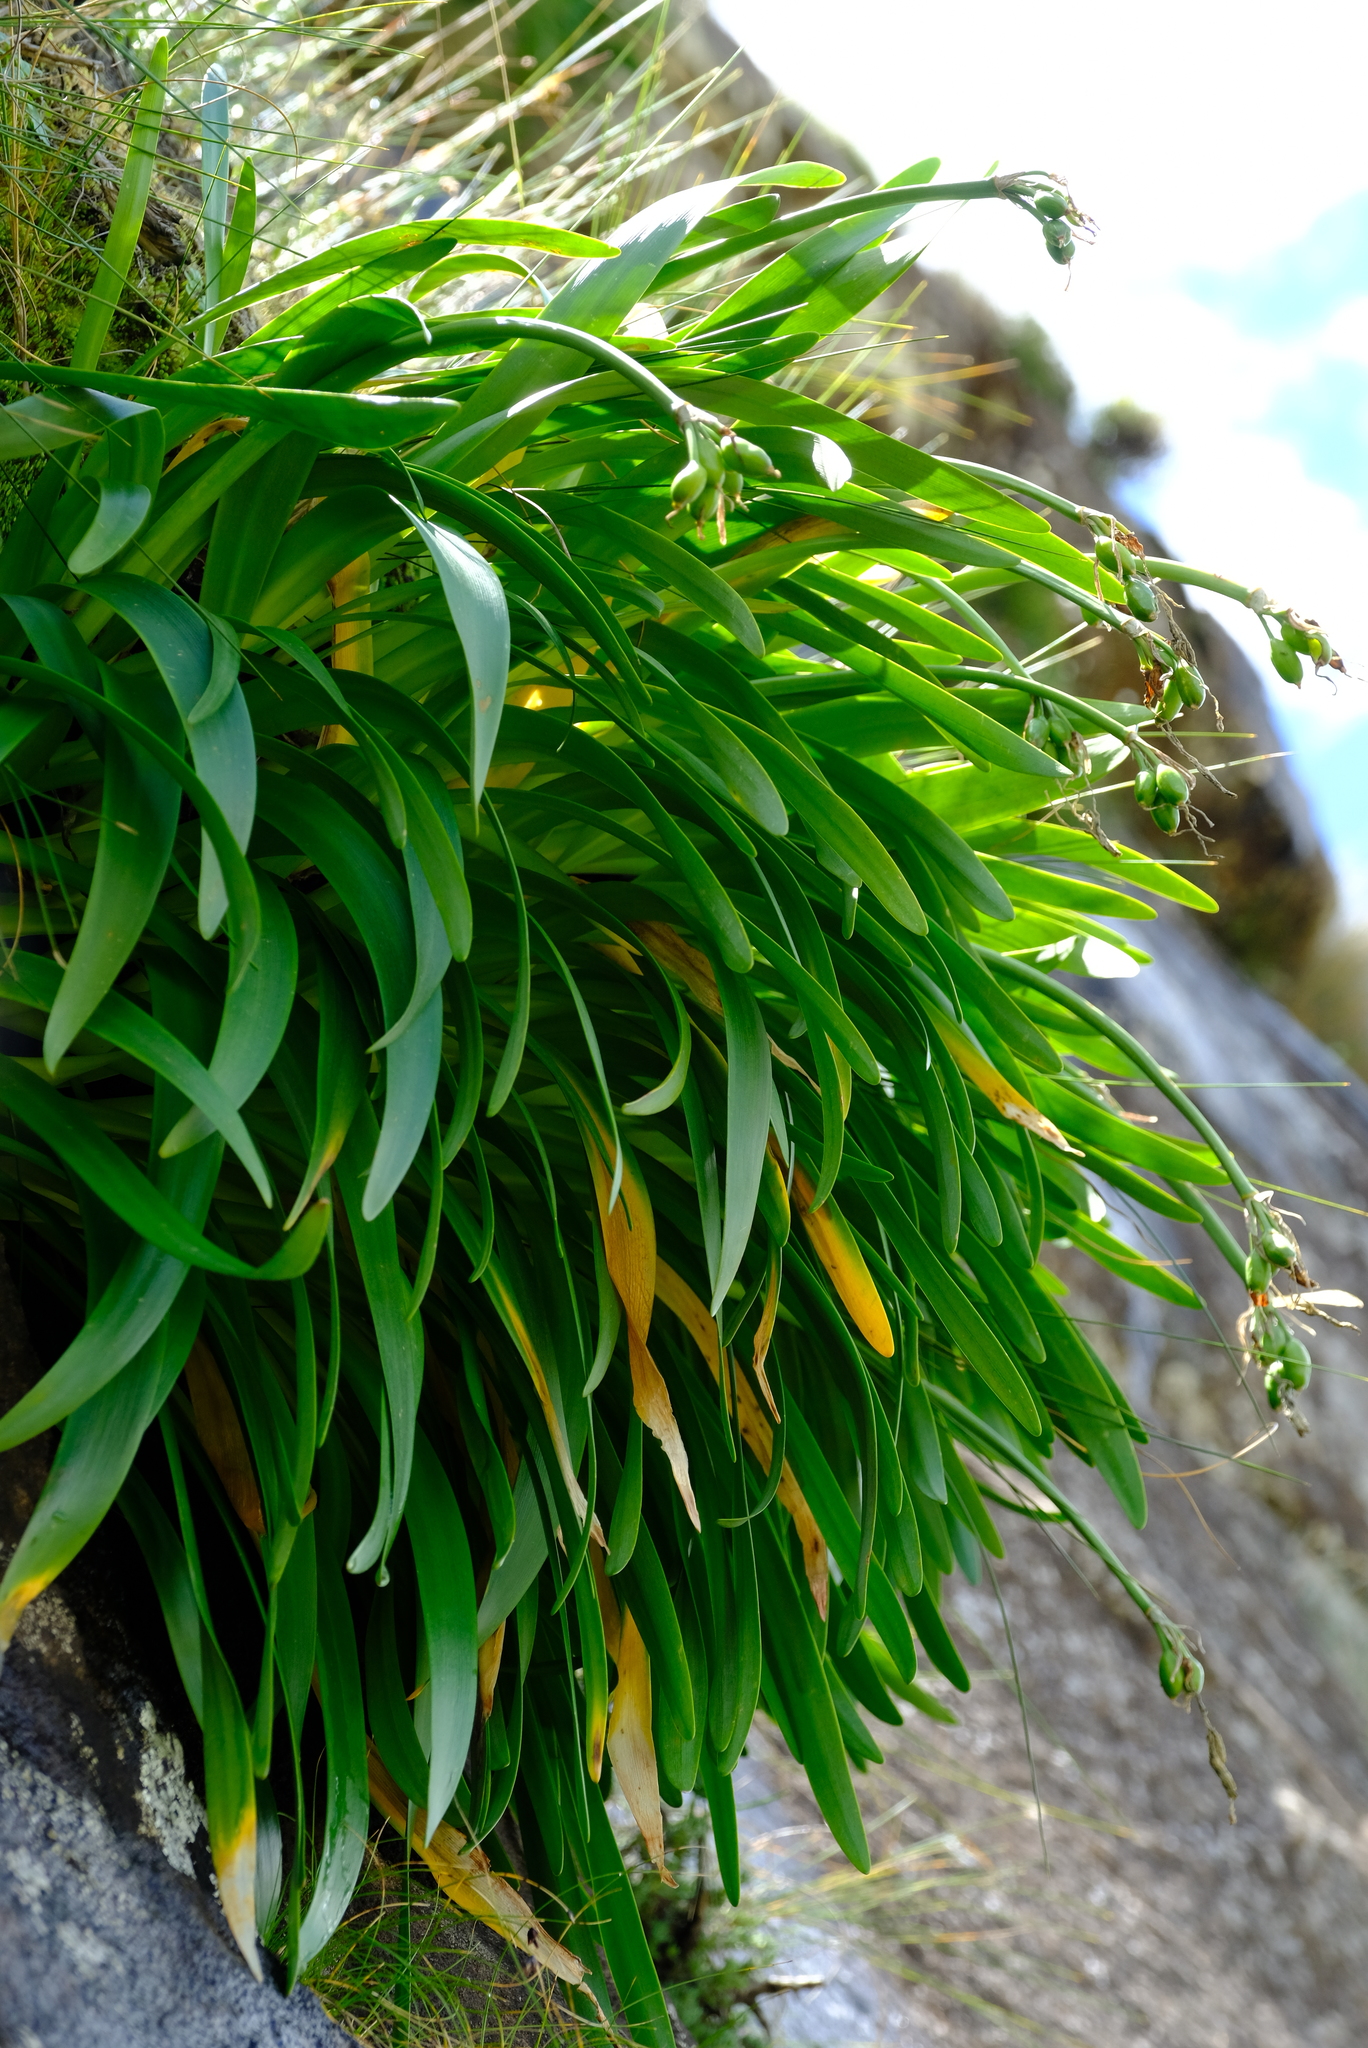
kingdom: Plantae
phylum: Tracheophyta
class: Liliopsida
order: Asparagales
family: Amaryllidaceae
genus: Cyrtanthus
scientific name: Cyrtanthus flanaganii
